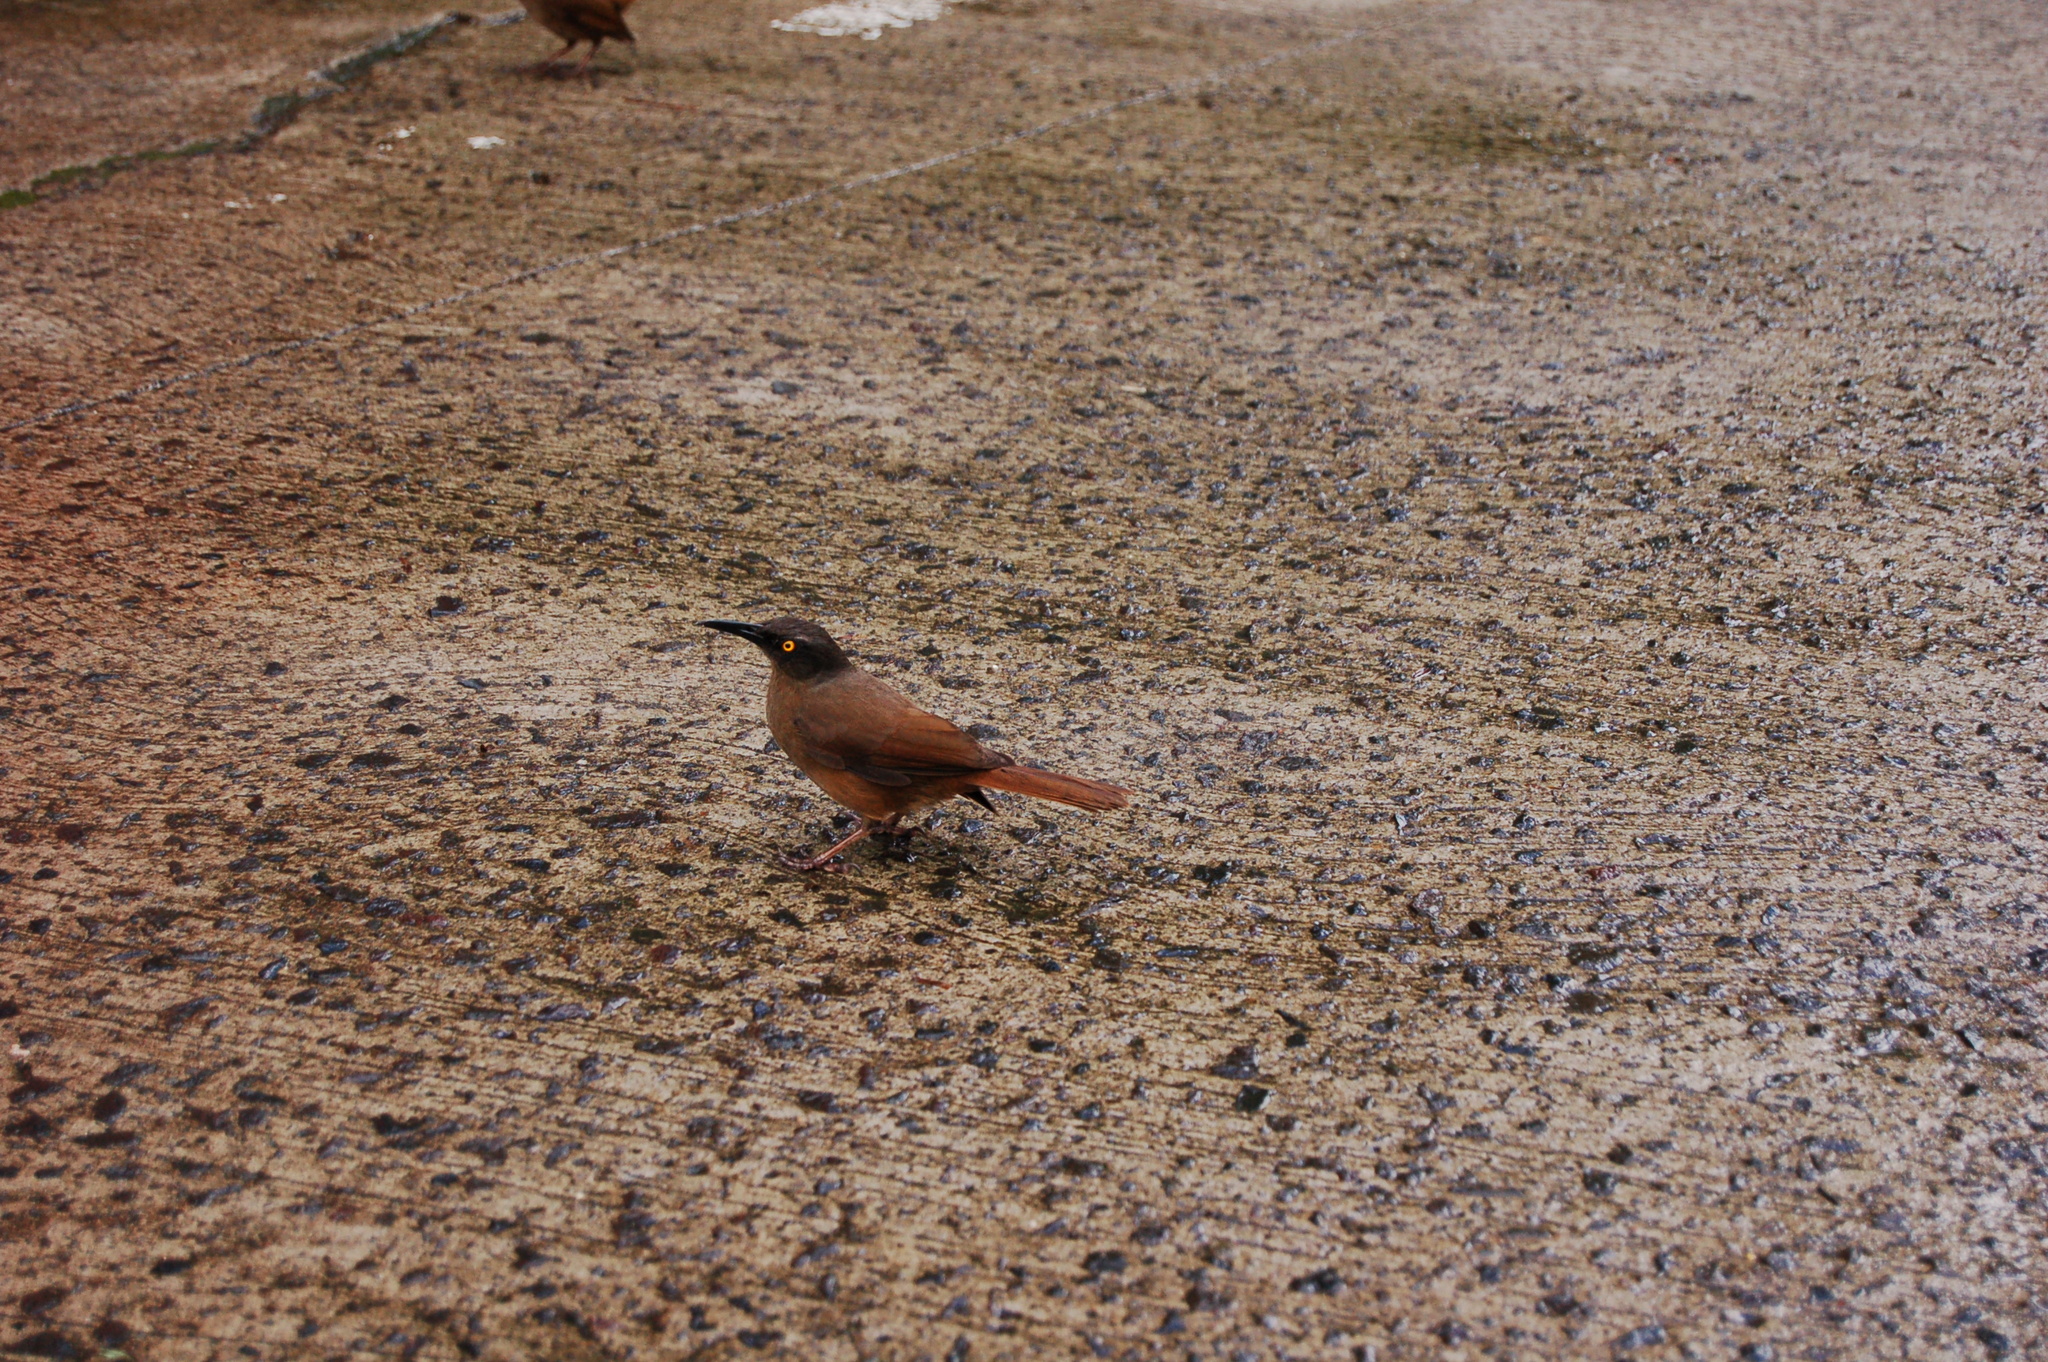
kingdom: Animalia
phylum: Chordata
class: Aves
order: Passeriformes
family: Mimidae
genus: Cinclocerthia
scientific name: Cinclocerthia ruficauda
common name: Brown trembler
